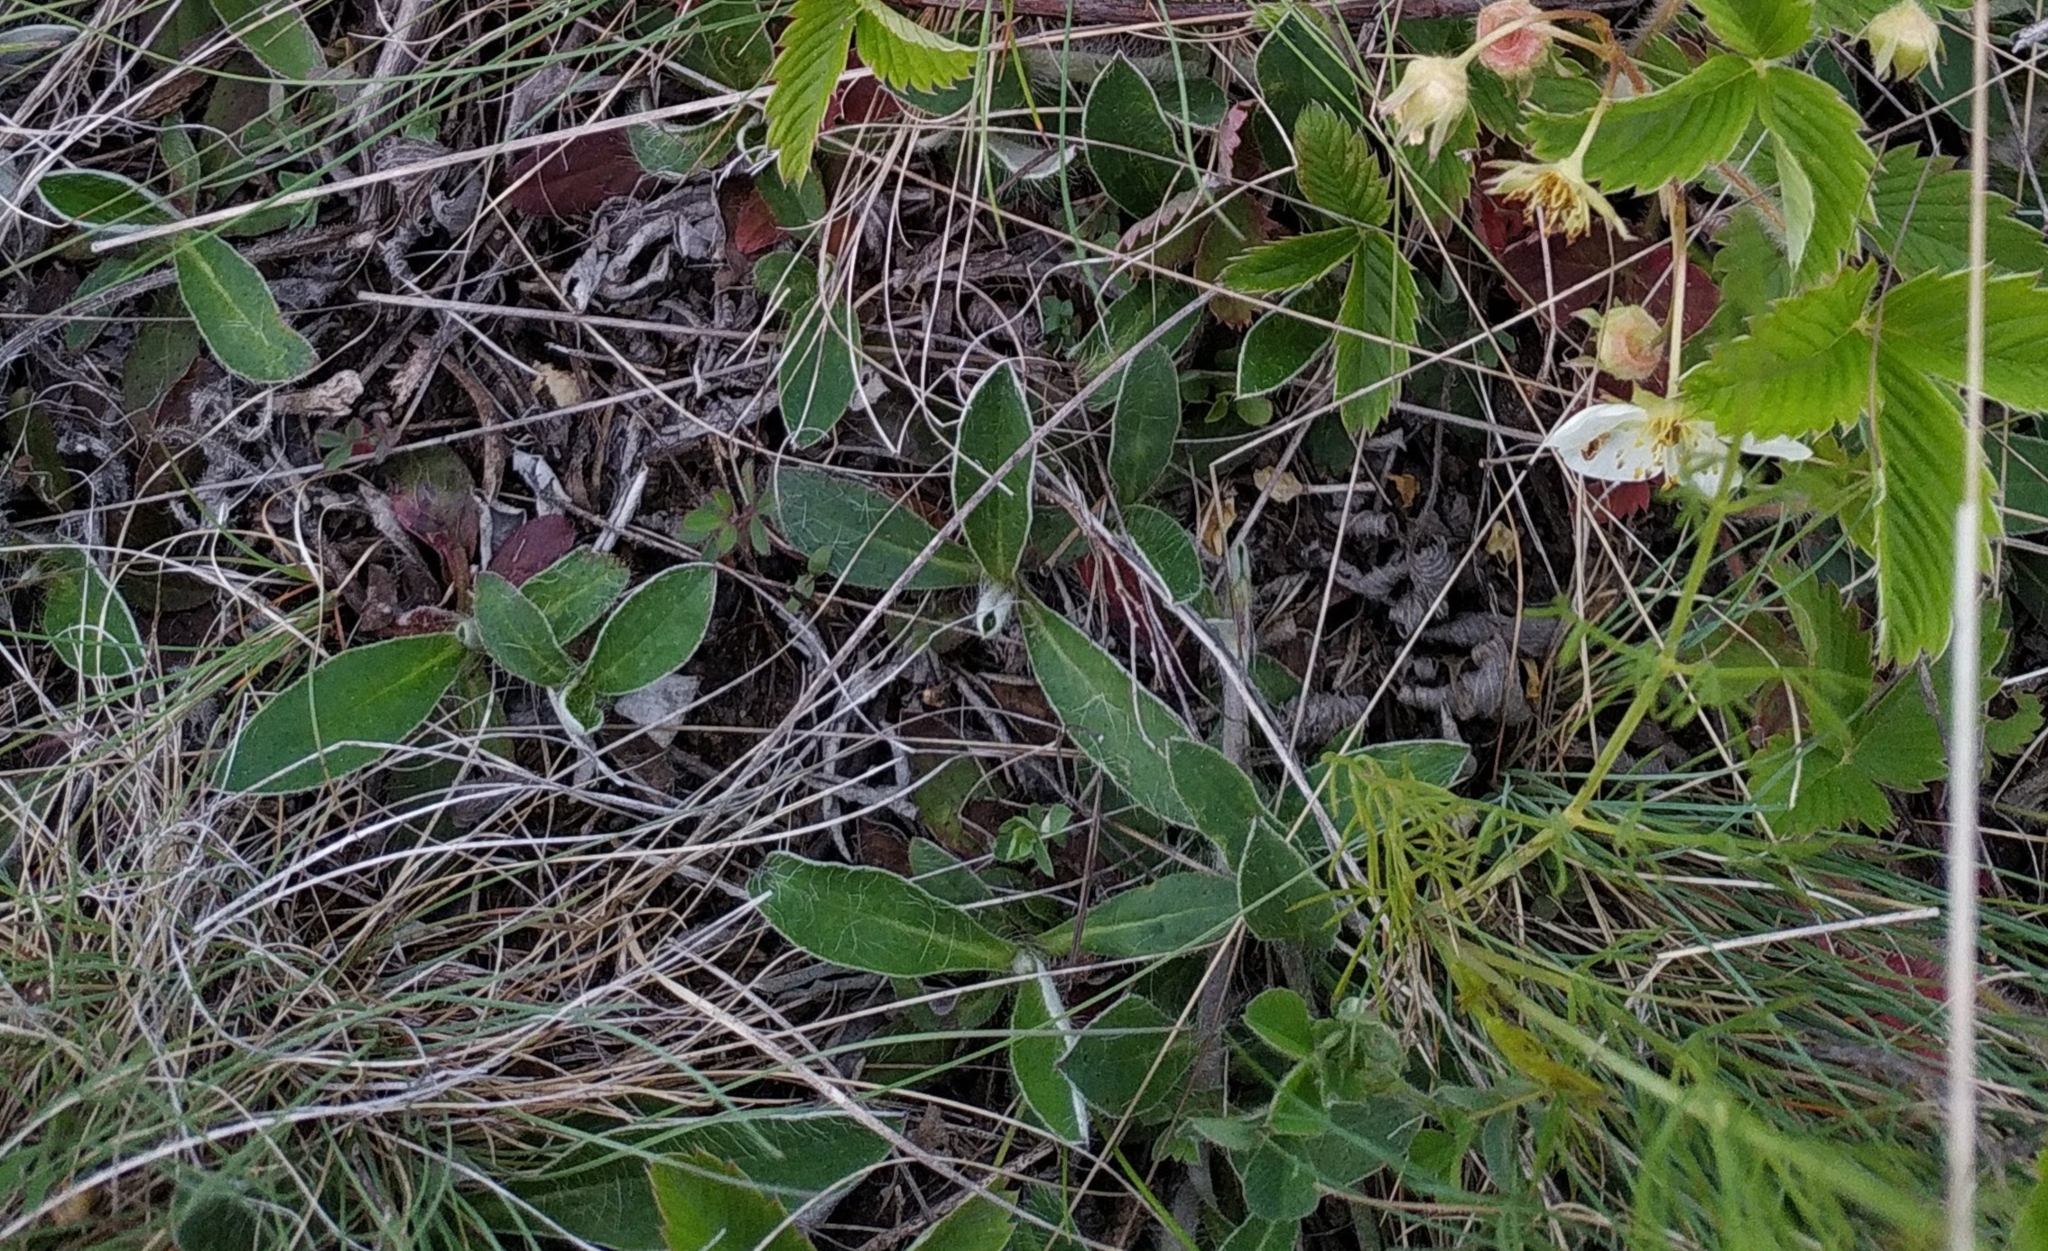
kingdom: Plantae
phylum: Tracheophyta
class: Magnoliopsida
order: Asterales
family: Asteraceae
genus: Pilosella
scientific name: Pilosella officinarum
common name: Mouse-ear hawkweed
